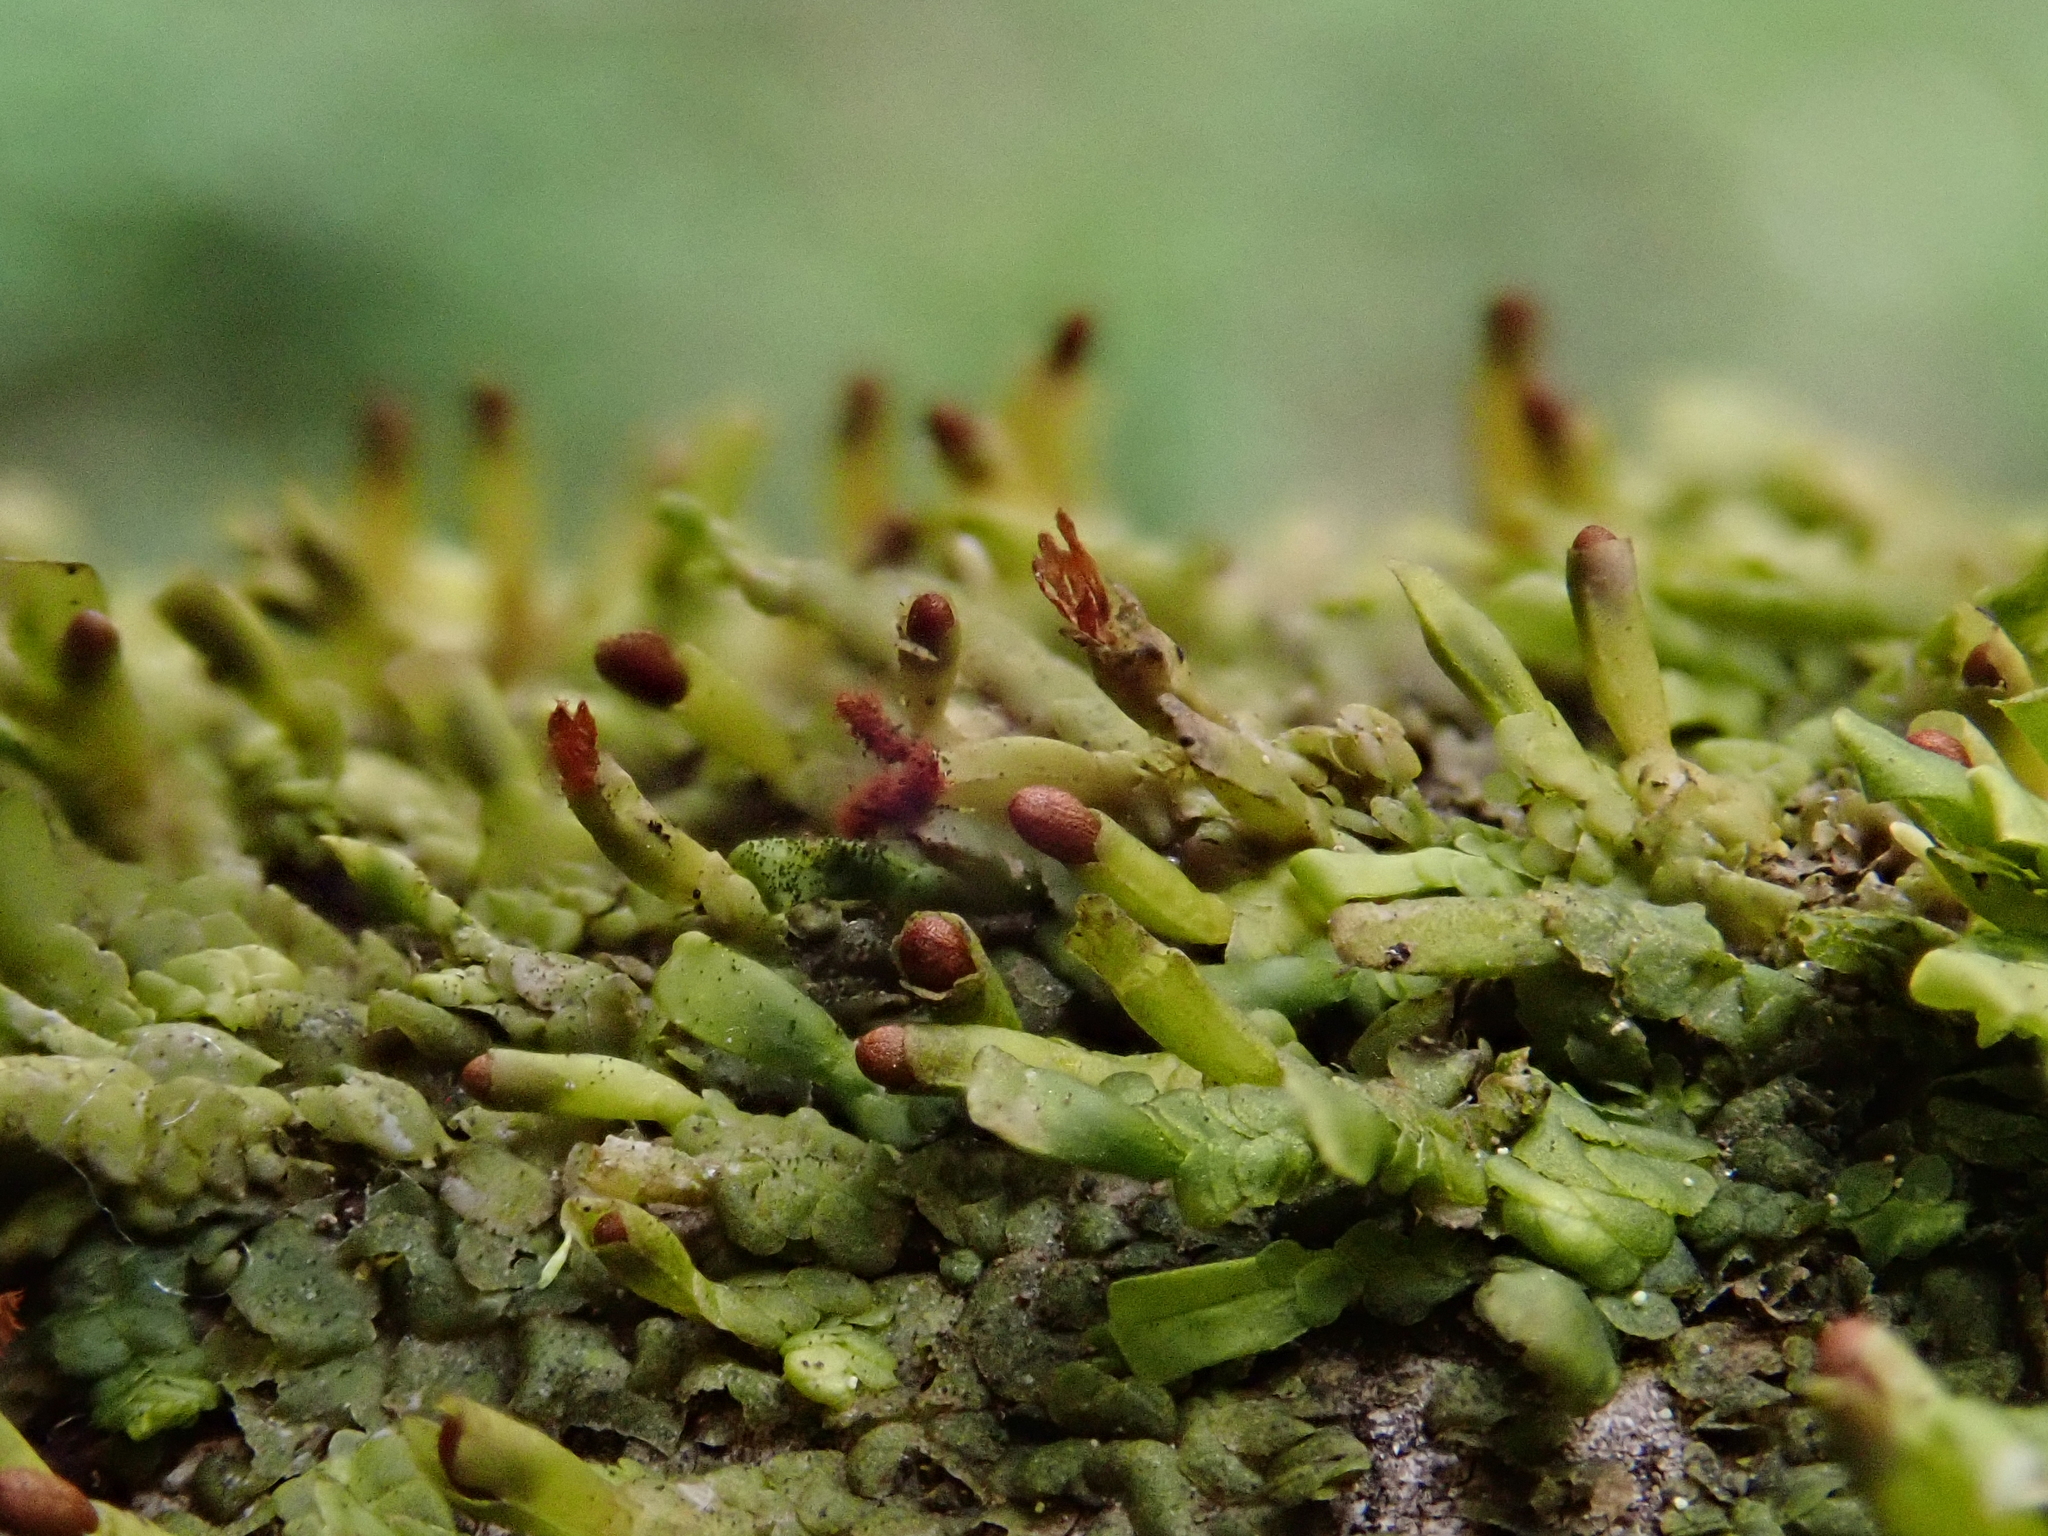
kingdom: Plantae
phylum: Marchantiophyta
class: Jungermanniopsida
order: Porellales
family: Radulaceae
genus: Radula
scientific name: Radula complanata
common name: Flat-leaved scalewort
